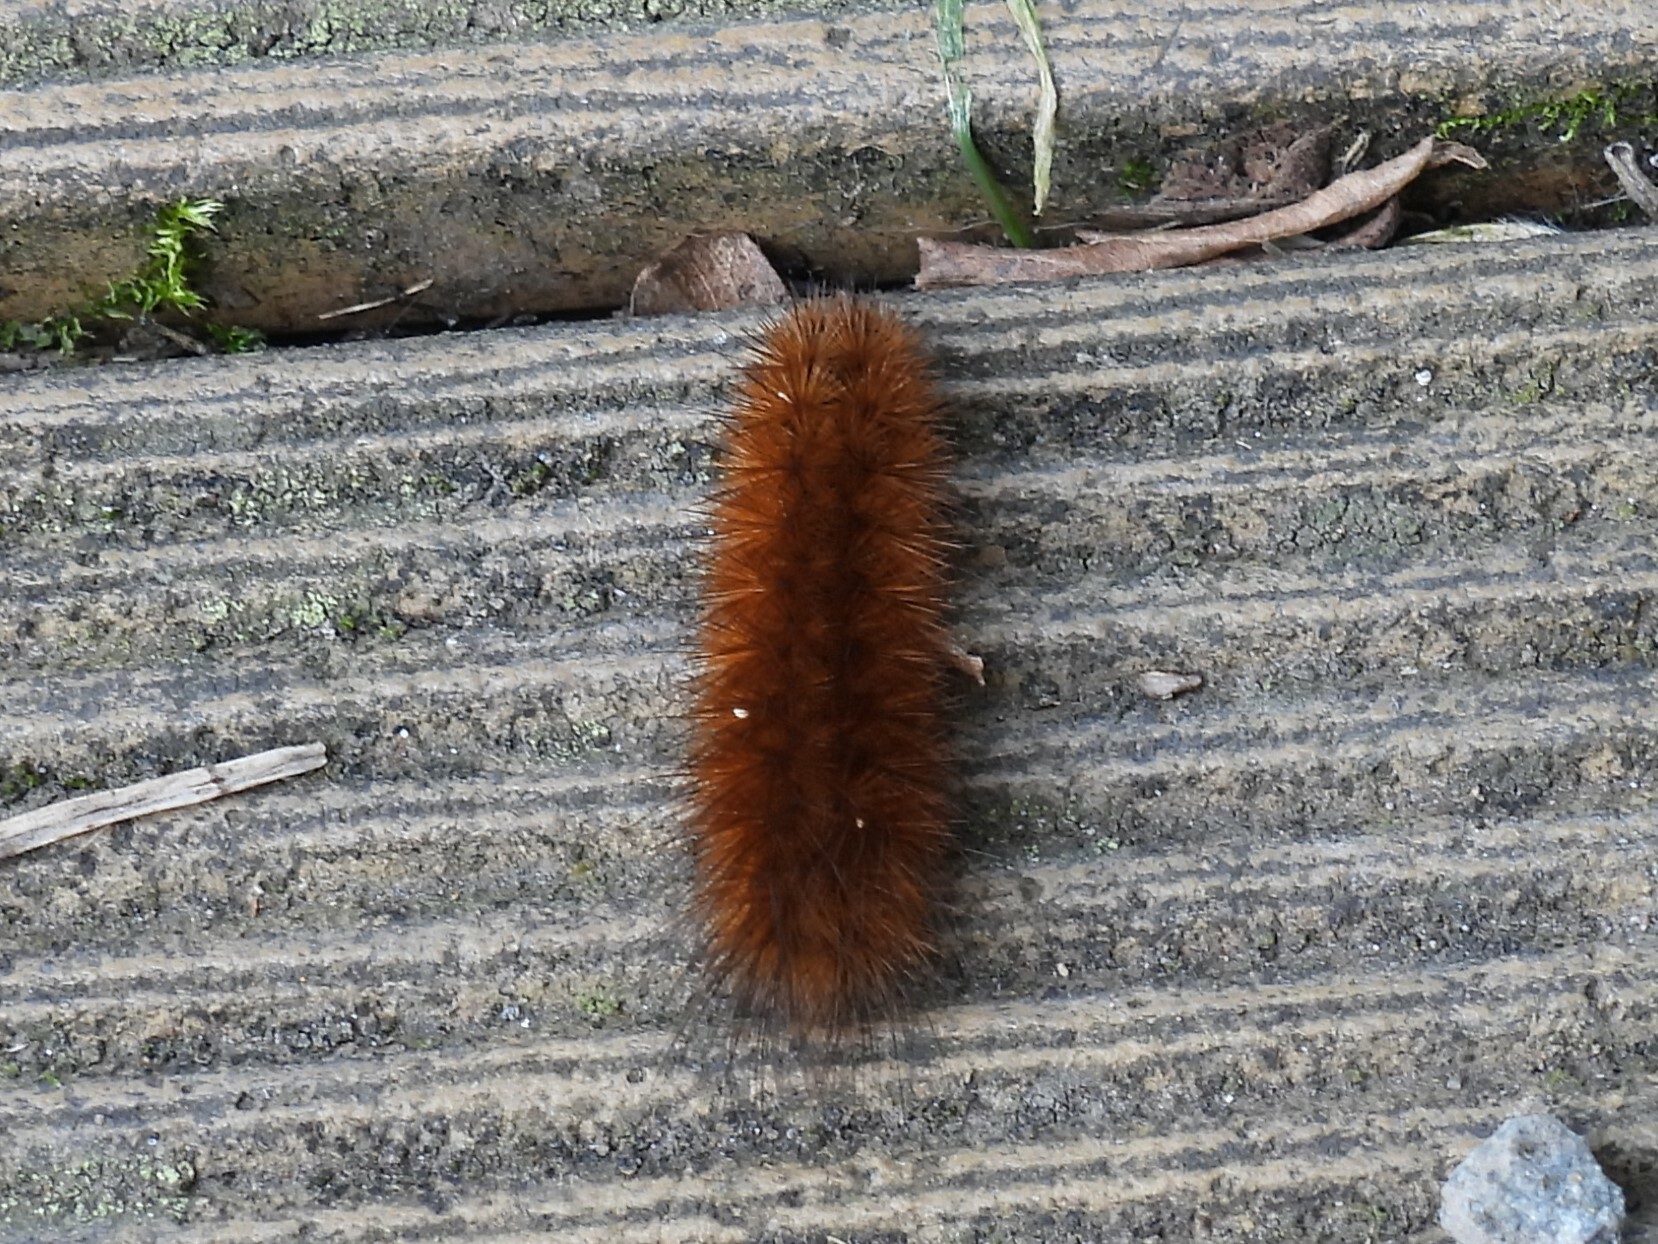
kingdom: Animalia
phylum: Arthropoda
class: Insecta
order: Lepidoptera
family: Erebidae
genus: Phragmatobia
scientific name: Phragmatobia fuliginosa
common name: Ruby tiger
